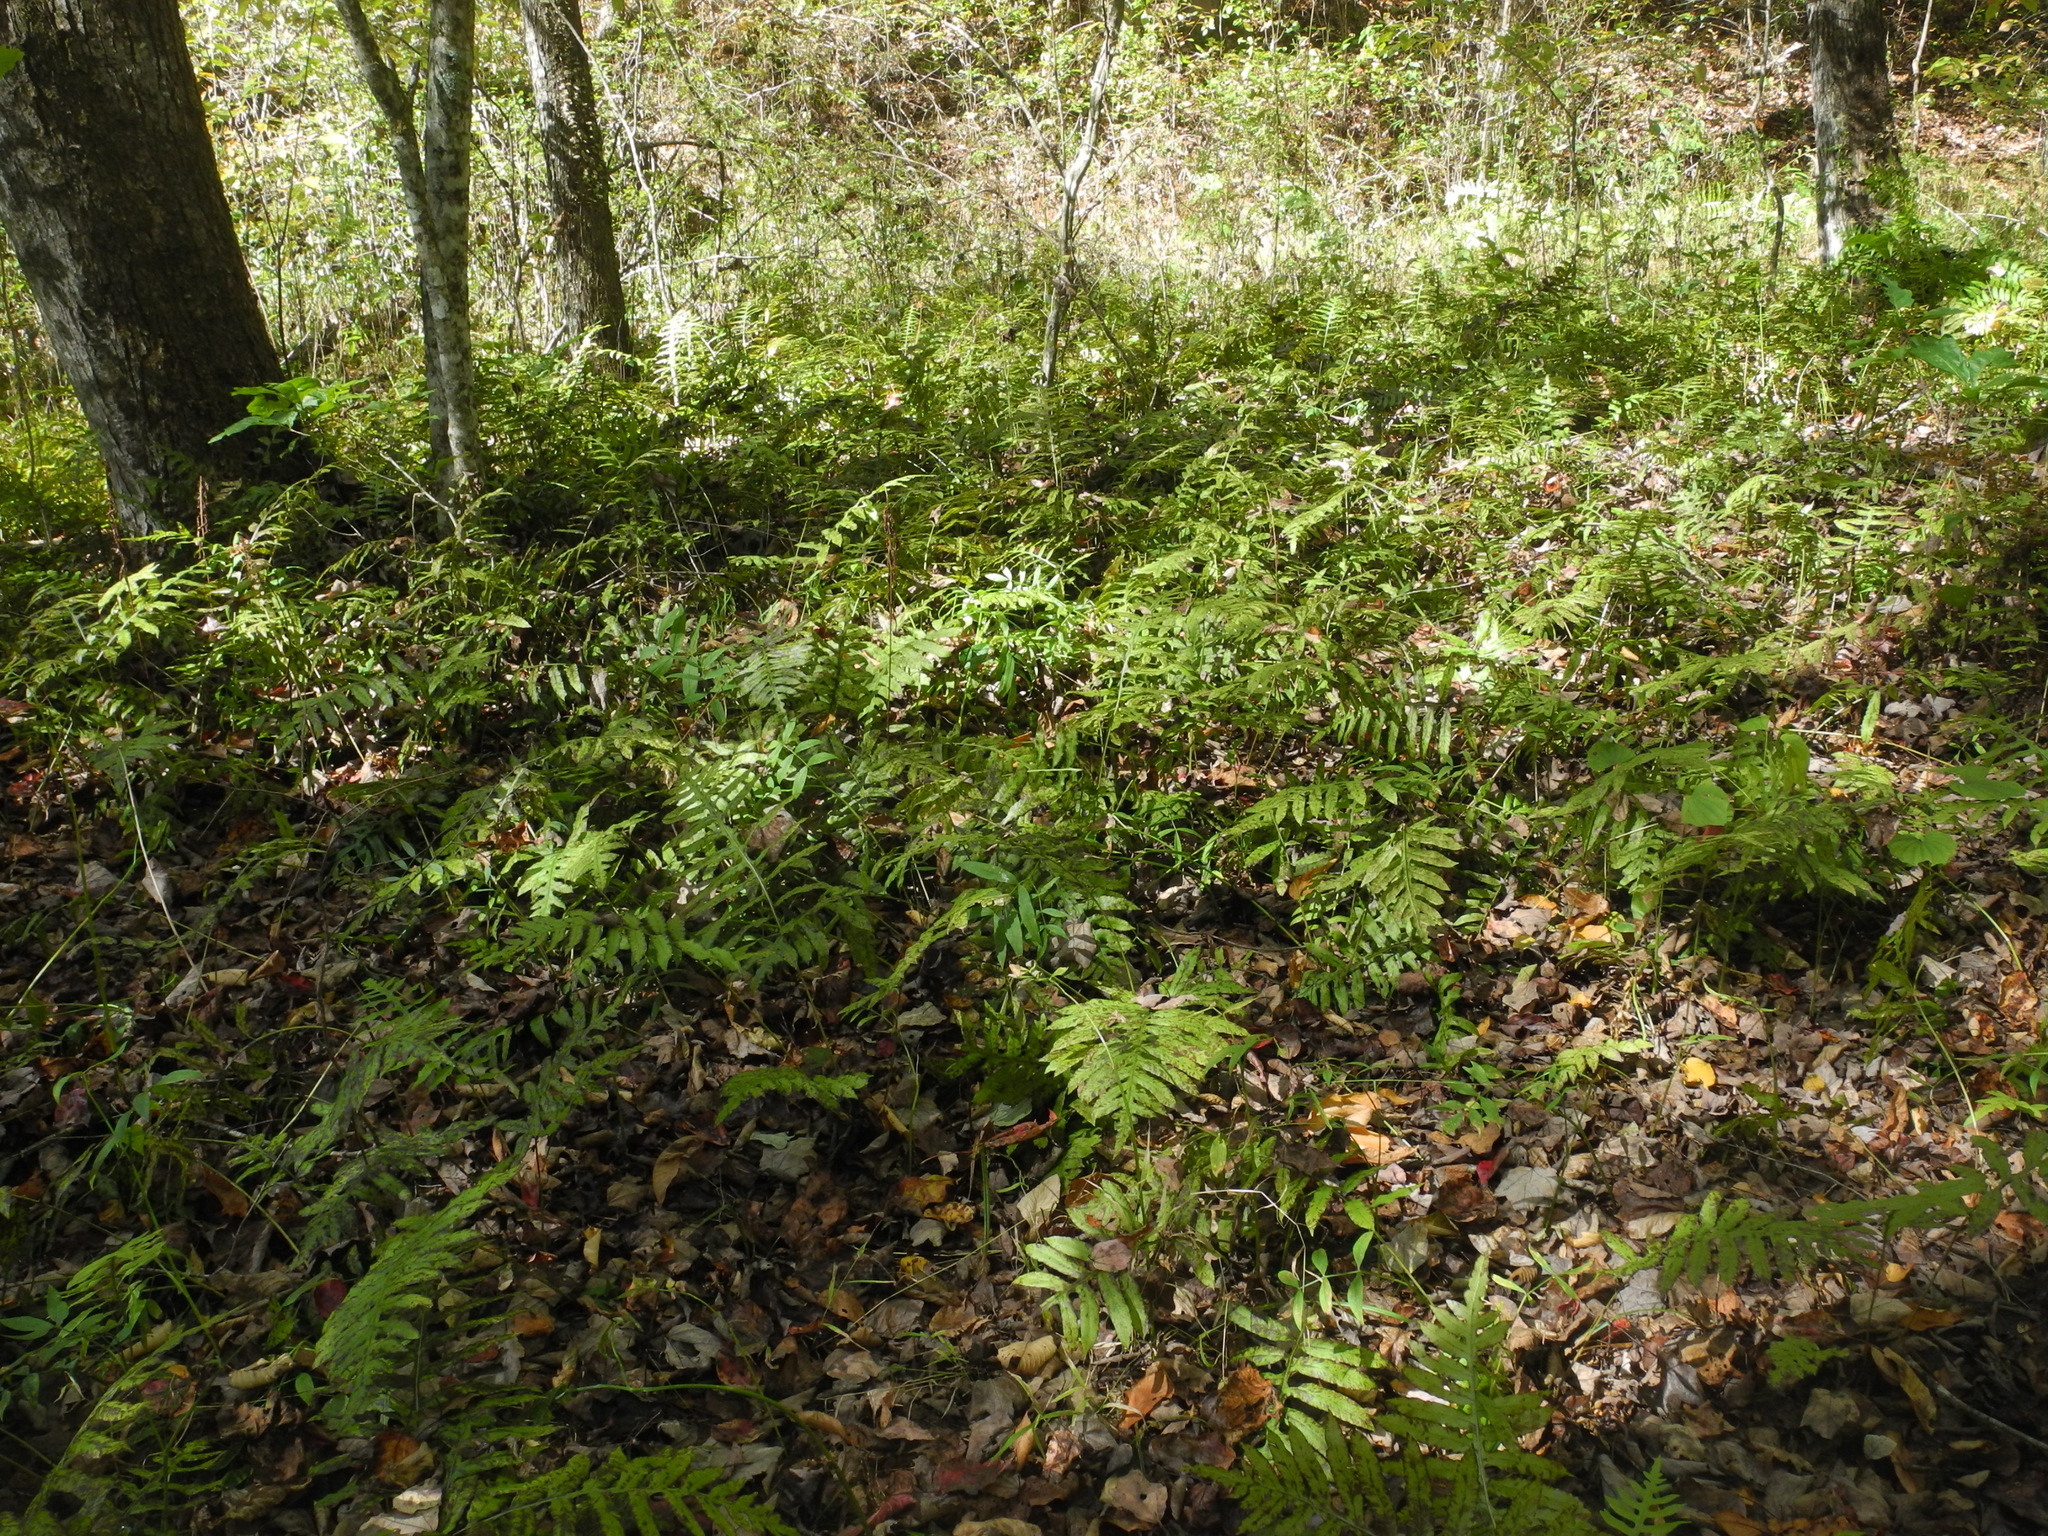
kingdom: Plantae
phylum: Tracheophyta
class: Polypodiopsida
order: Polypodiales
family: Blechnaceae
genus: Lorinseria
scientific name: Lorinseria areolata
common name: Dwarf chain fern
